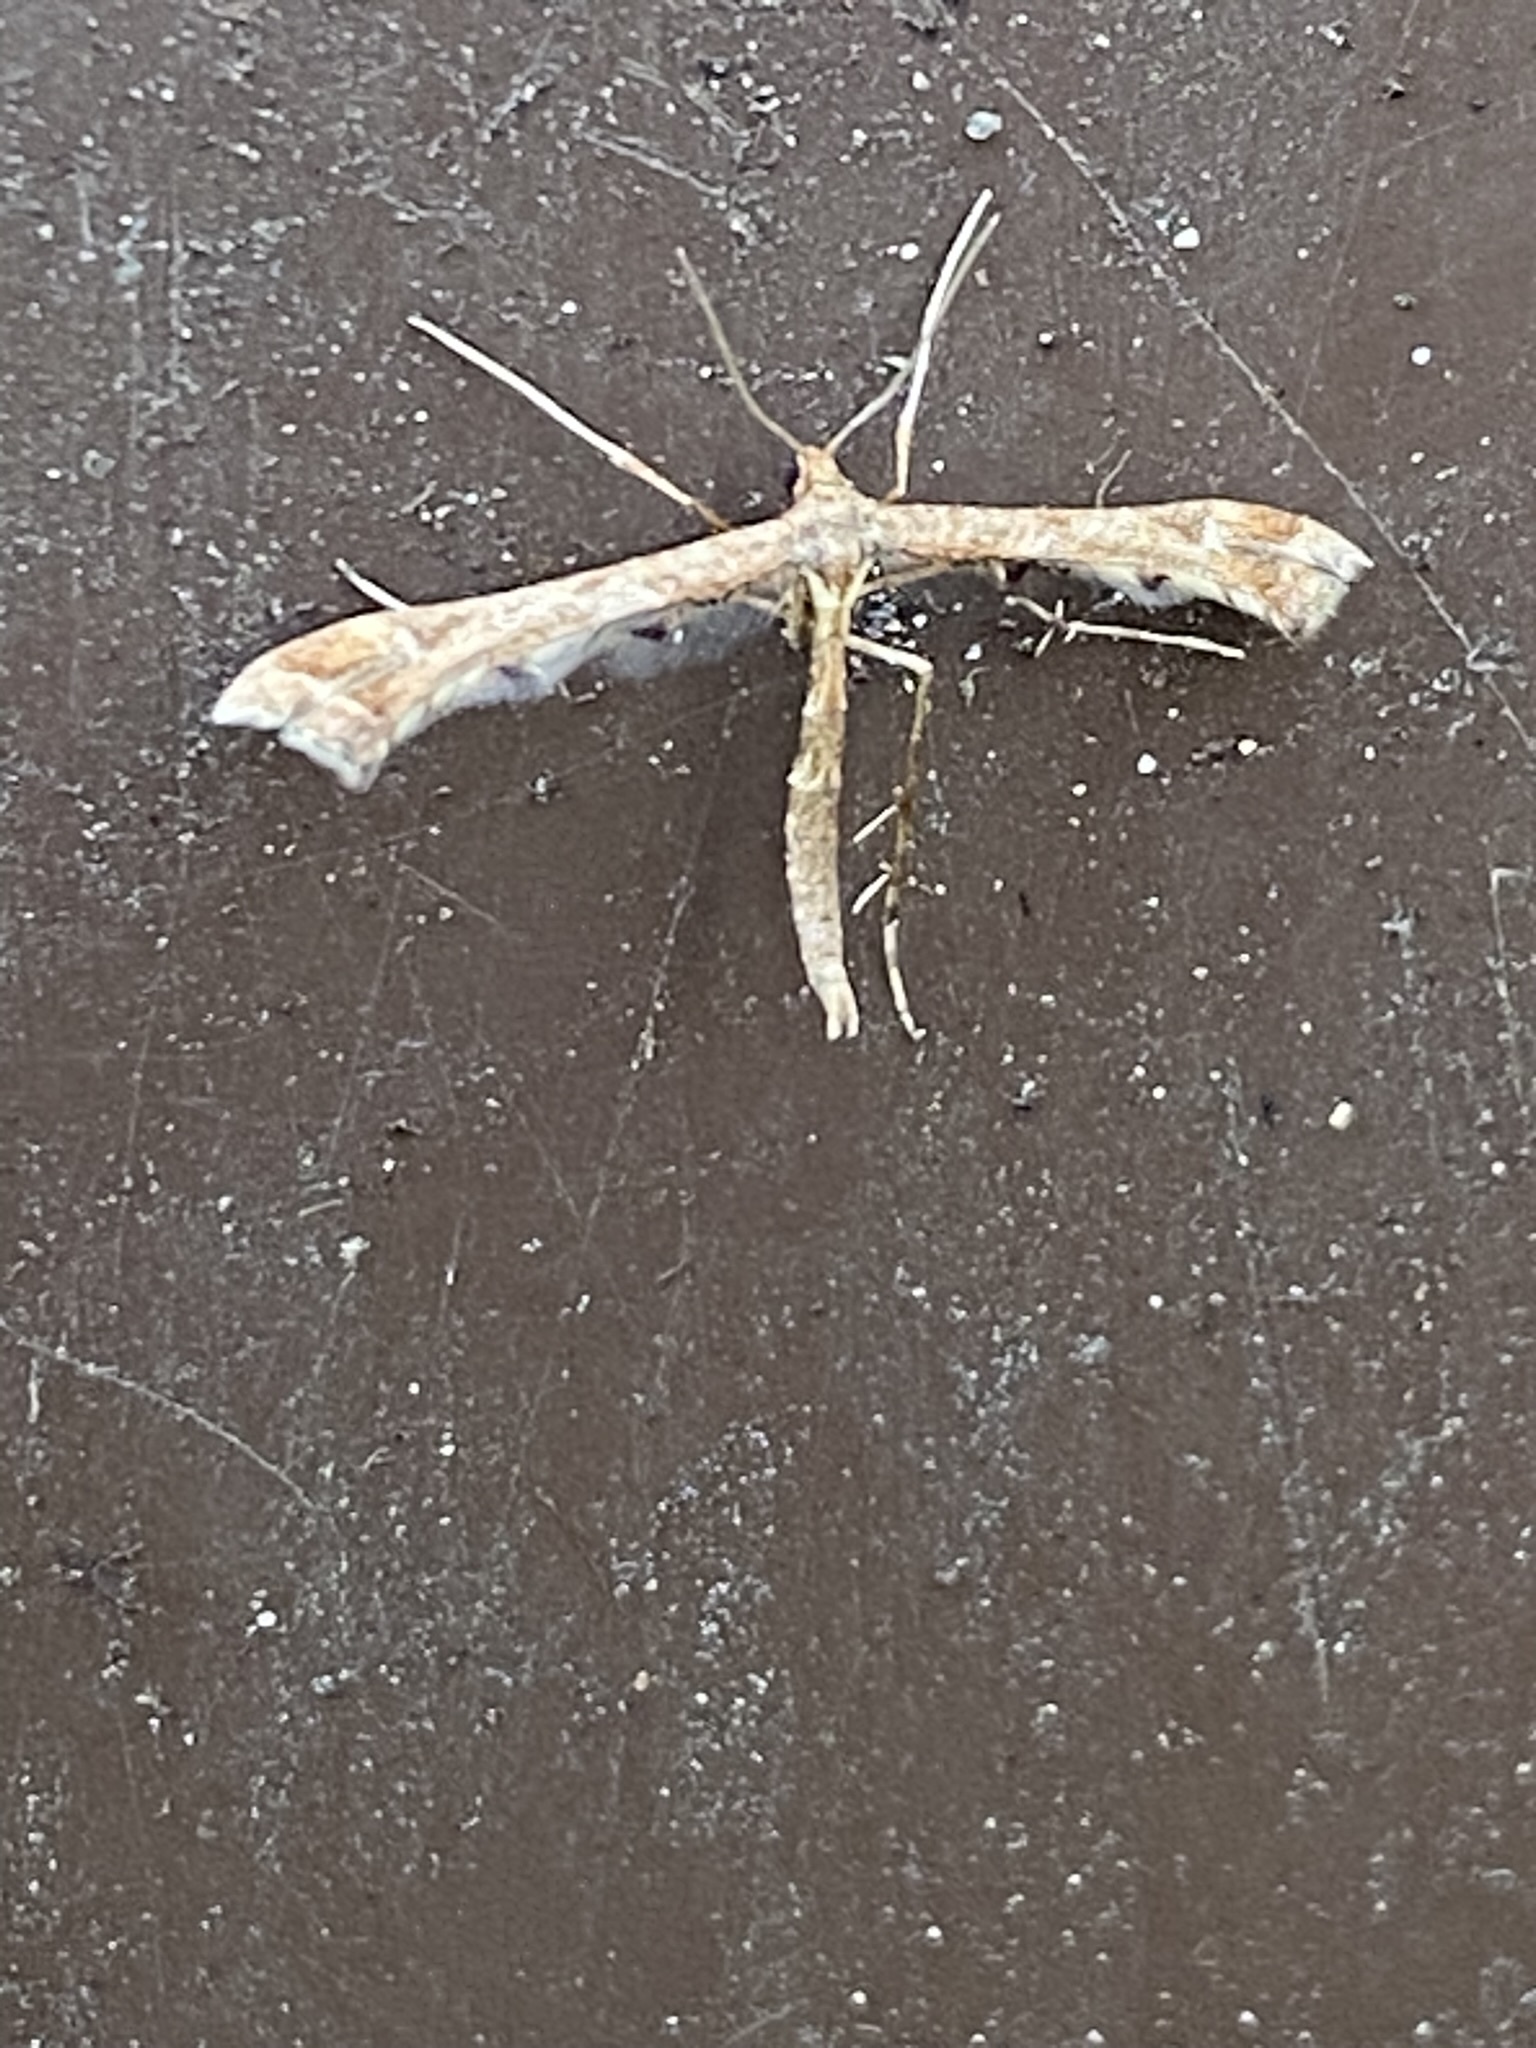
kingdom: Animalia
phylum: Arthropoda
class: Insecta
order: Lepidoptera
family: Pterophoridae
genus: Amblyptilia
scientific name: Amblyptilia acanthadactyla
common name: Beautiful plume
